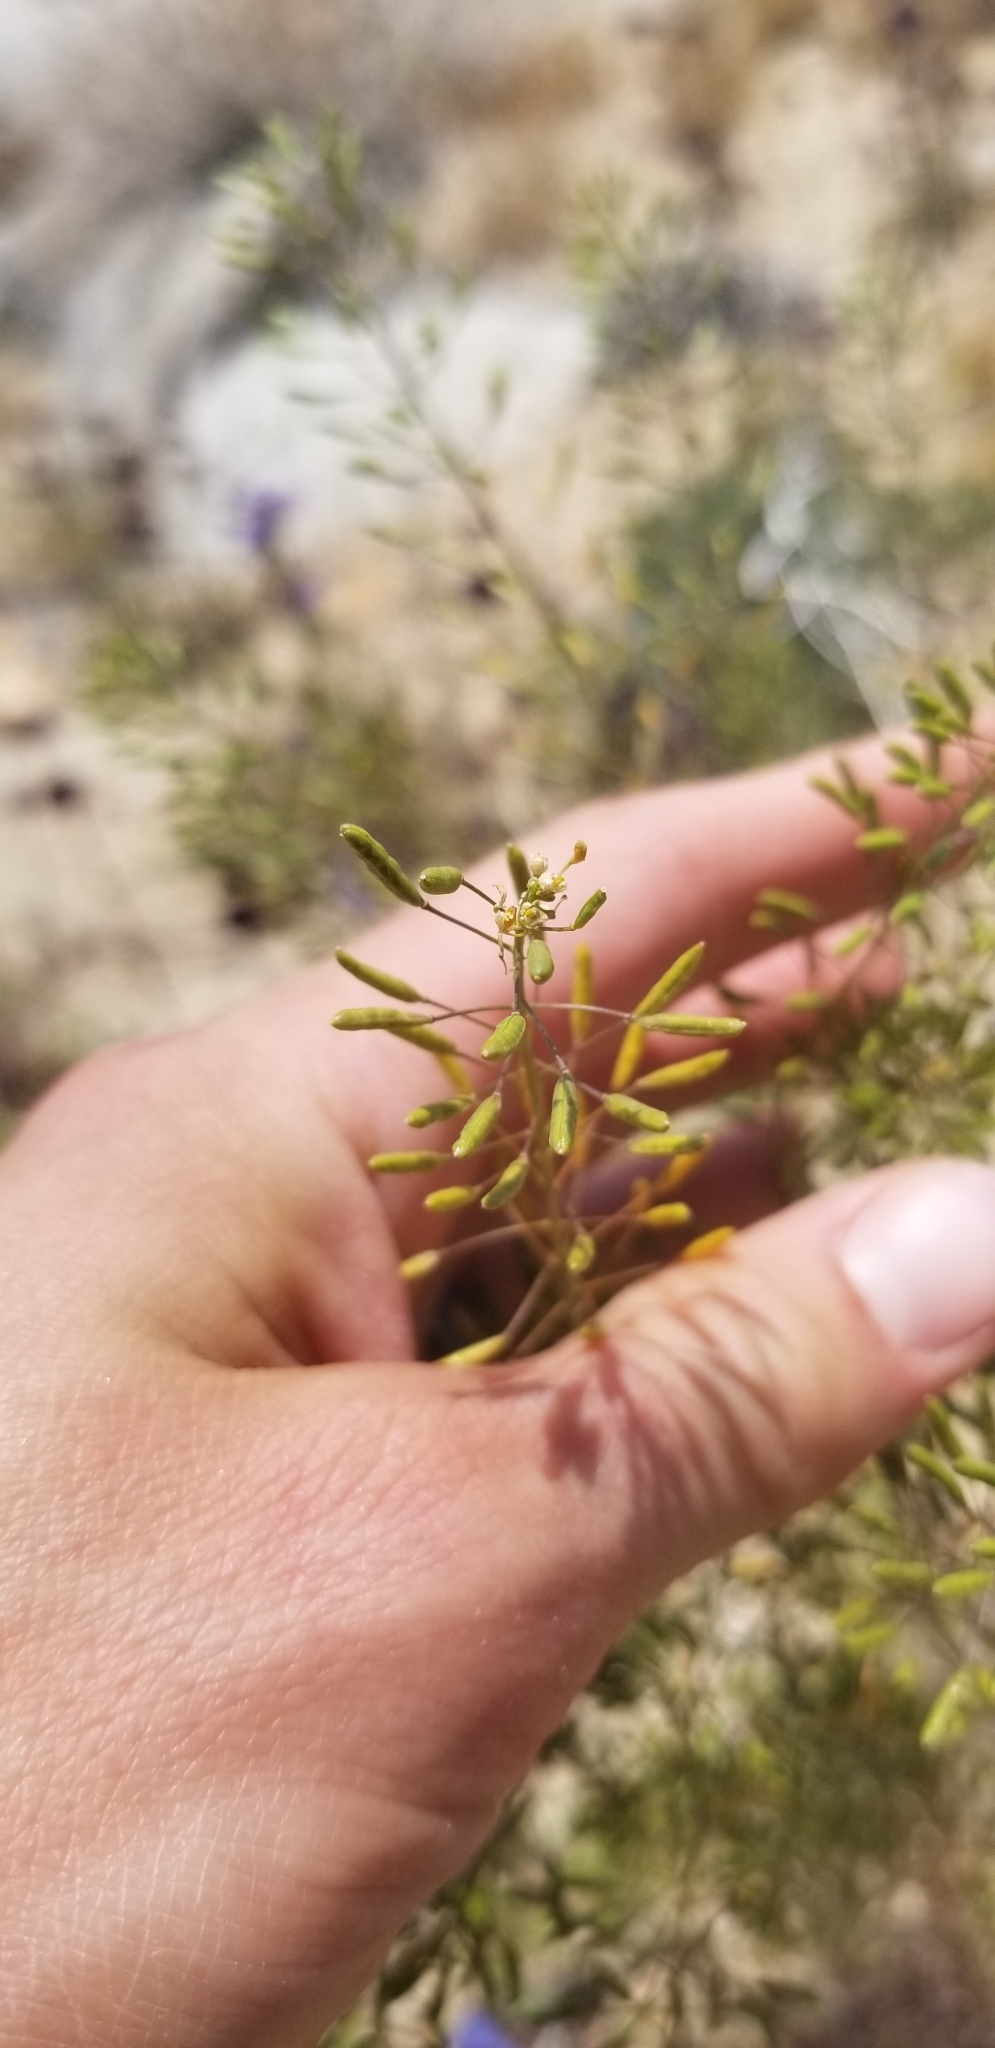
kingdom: Plantae
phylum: Tracheophyta
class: Magnoliopsida
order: Brassicales
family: Brassicaceae
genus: Descurainia
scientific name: Descurainia pinnata
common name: Western tansy mustard
